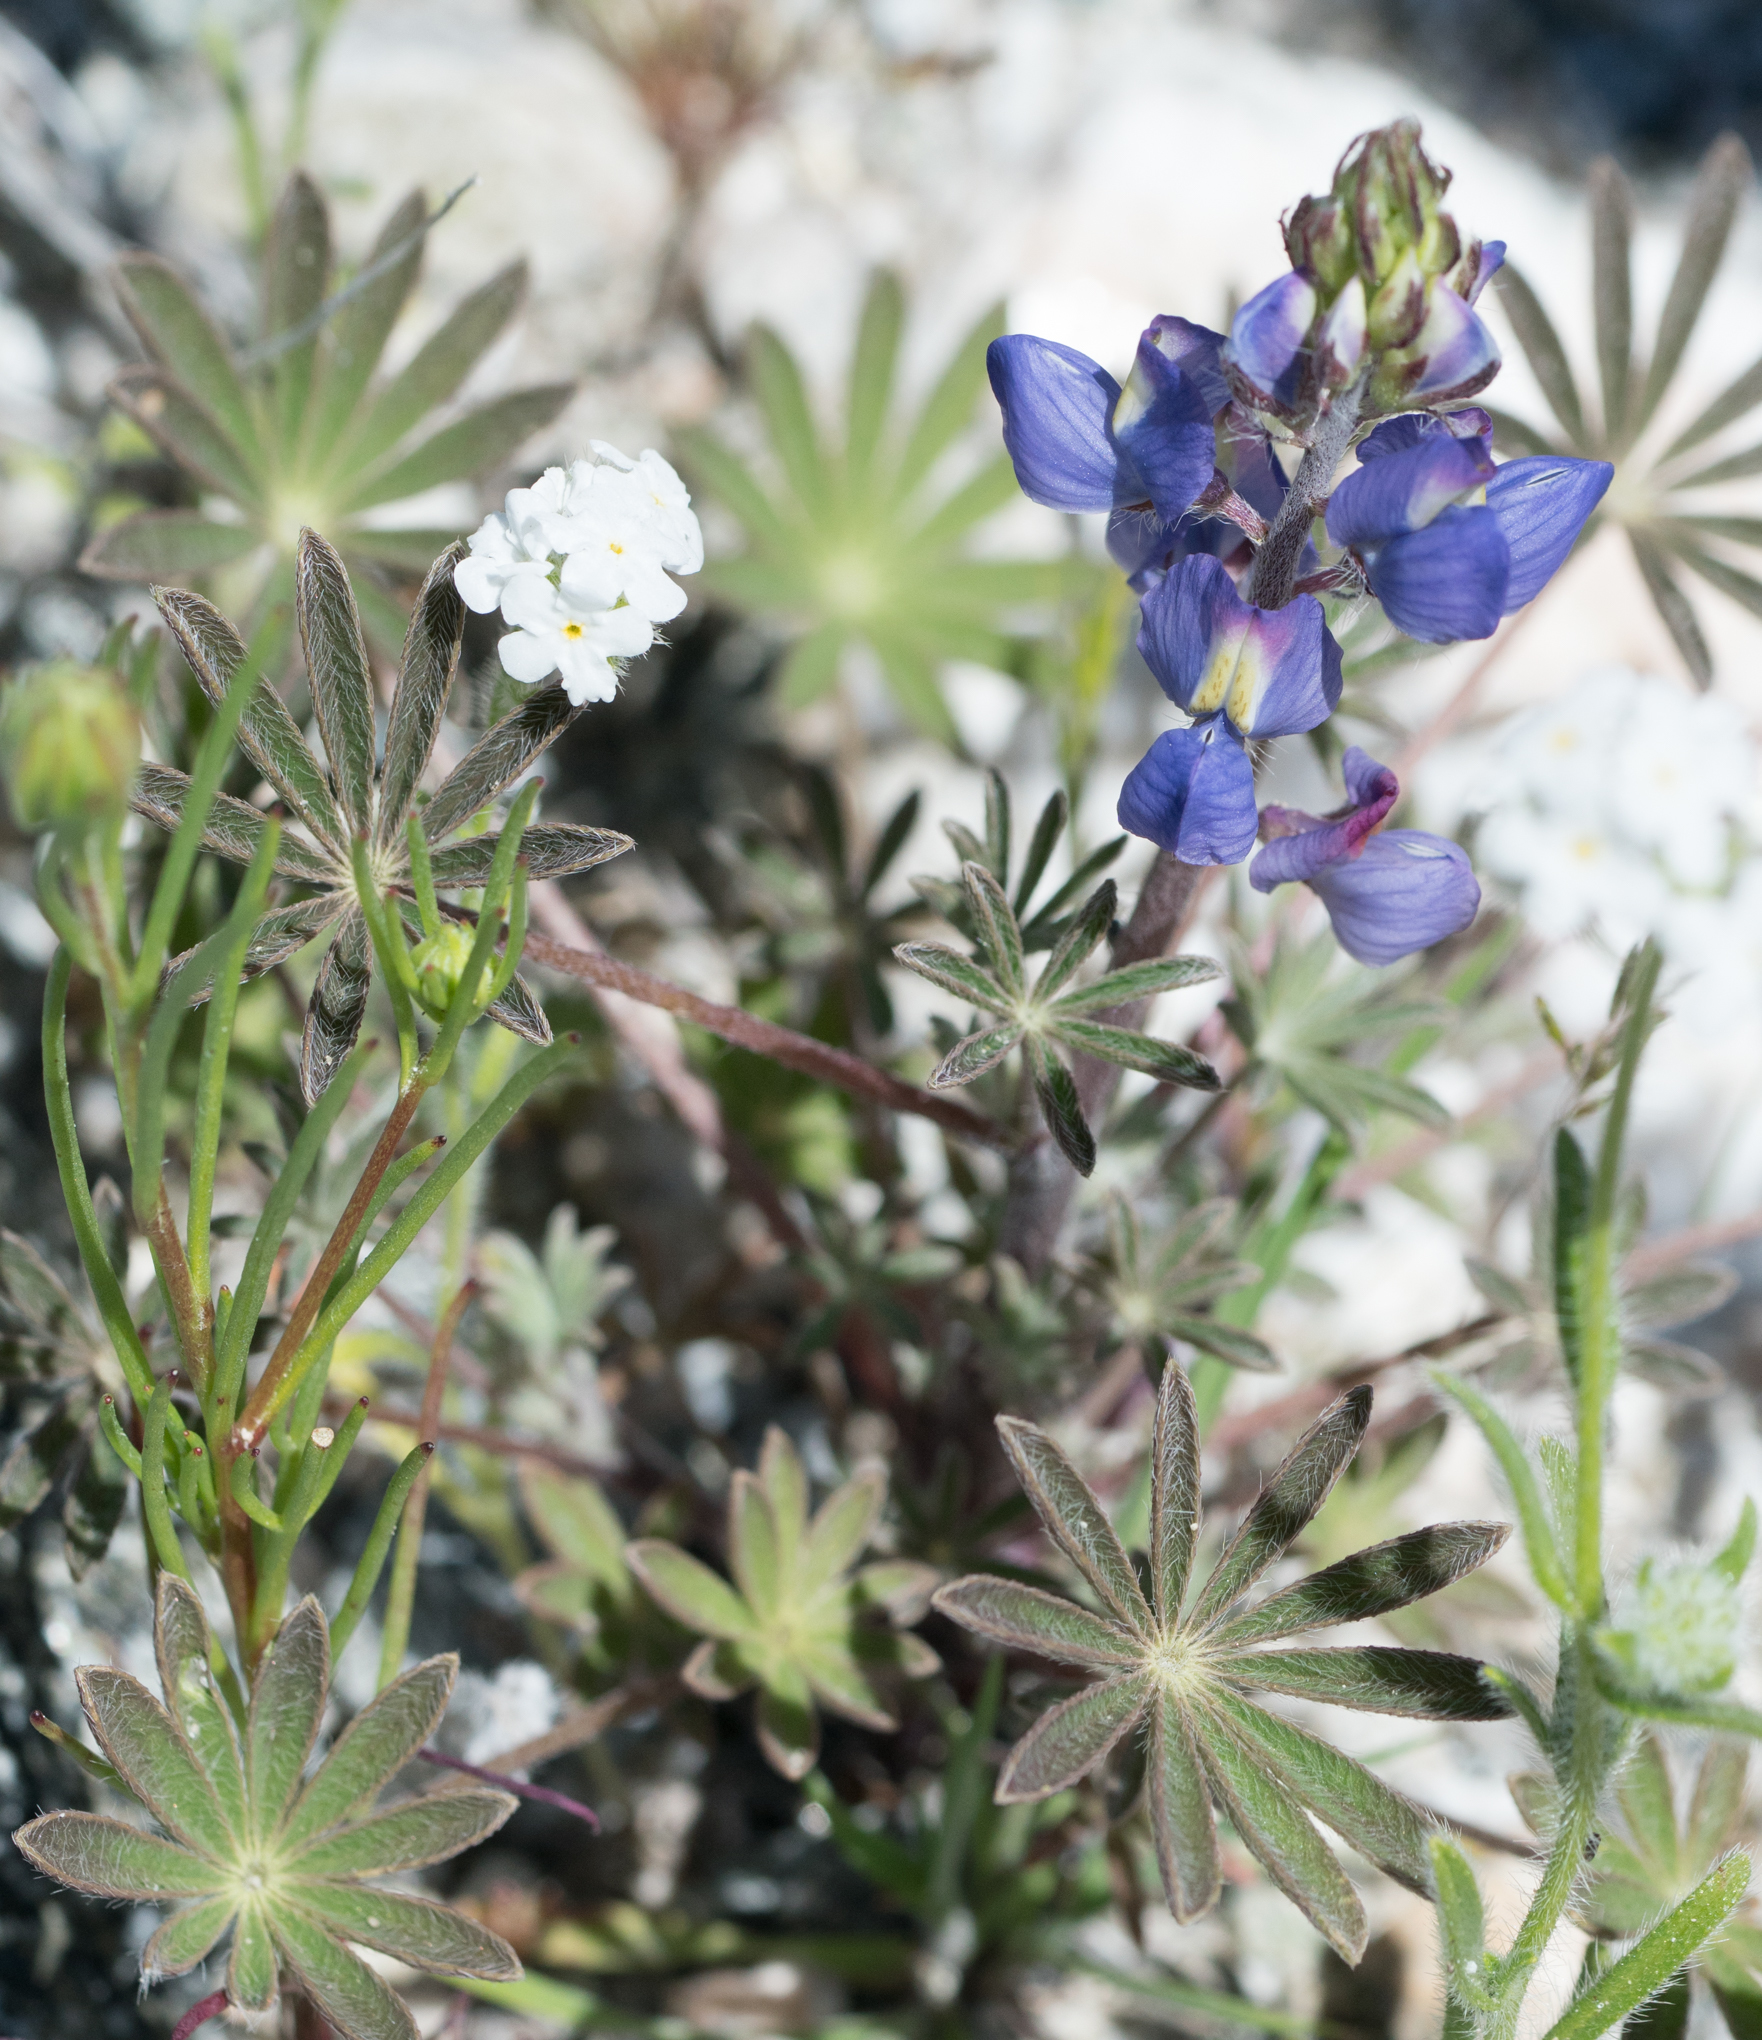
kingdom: Plantae
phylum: Tracheophyta
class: Magnoliopsida
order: Fabales
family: Fabaceae
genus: Lupinus
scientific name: Lupinus sparsiflorus
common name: Coulter's lupine
